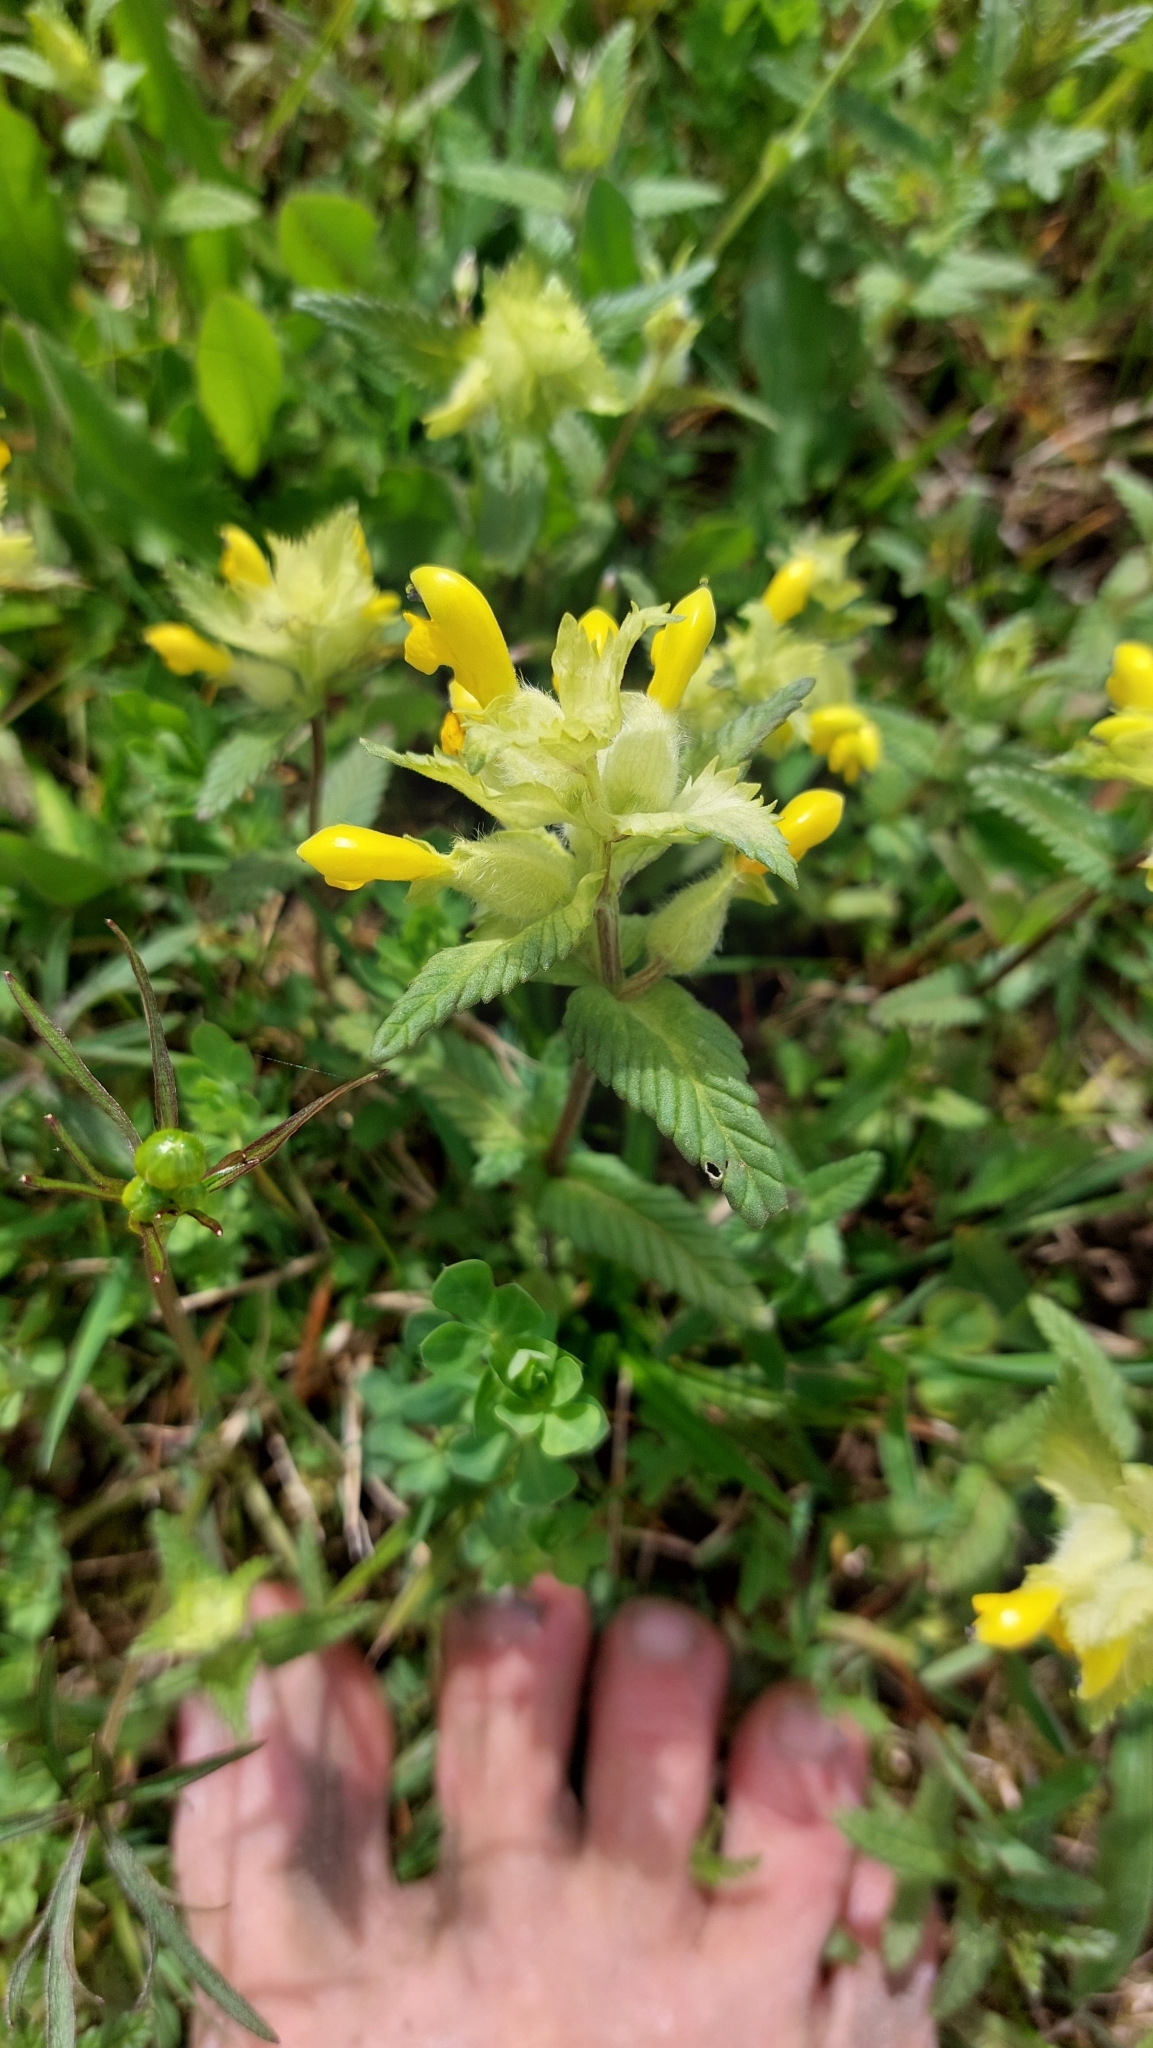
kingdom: Plantae
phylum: Tracheophyta
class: Magnoliopsida
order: Lamiales
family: Orobanchaceae
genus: Rhinanthus
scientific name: Rhinanthus alectorolophus
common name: Greater yellow-rattle
